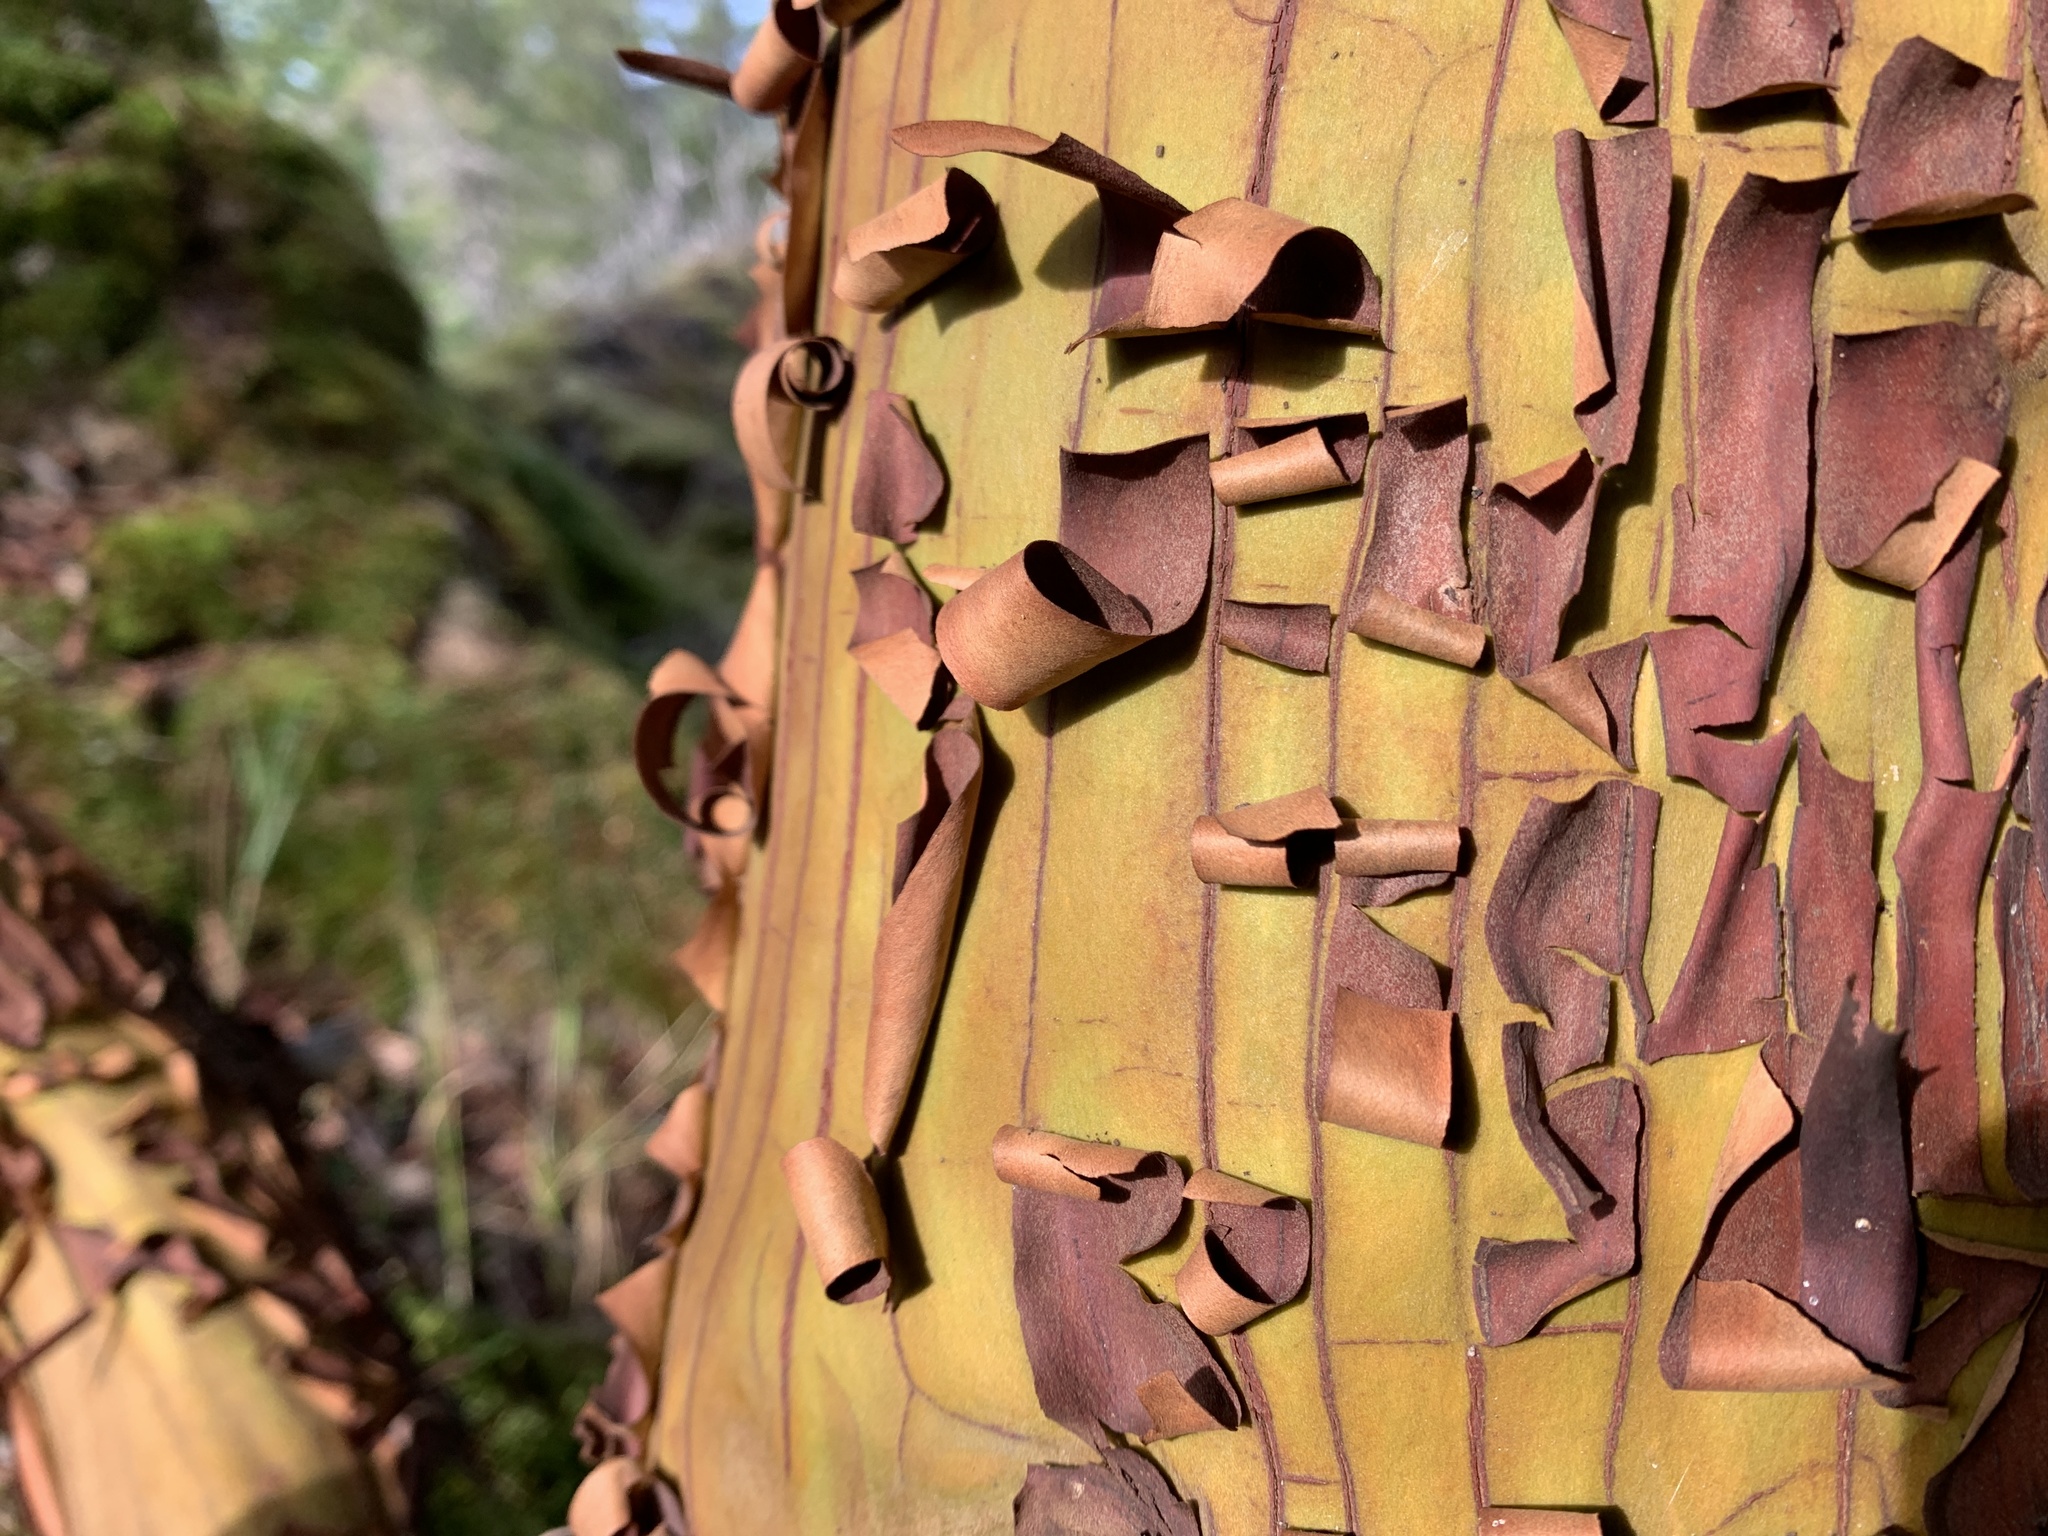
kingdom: Plantae
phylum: Tracheophyta
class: Magnoliopsida
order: Ericales
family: Ericaceae
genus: Arbutus
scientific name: Arbutus menziesii
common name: Pacific madrone
